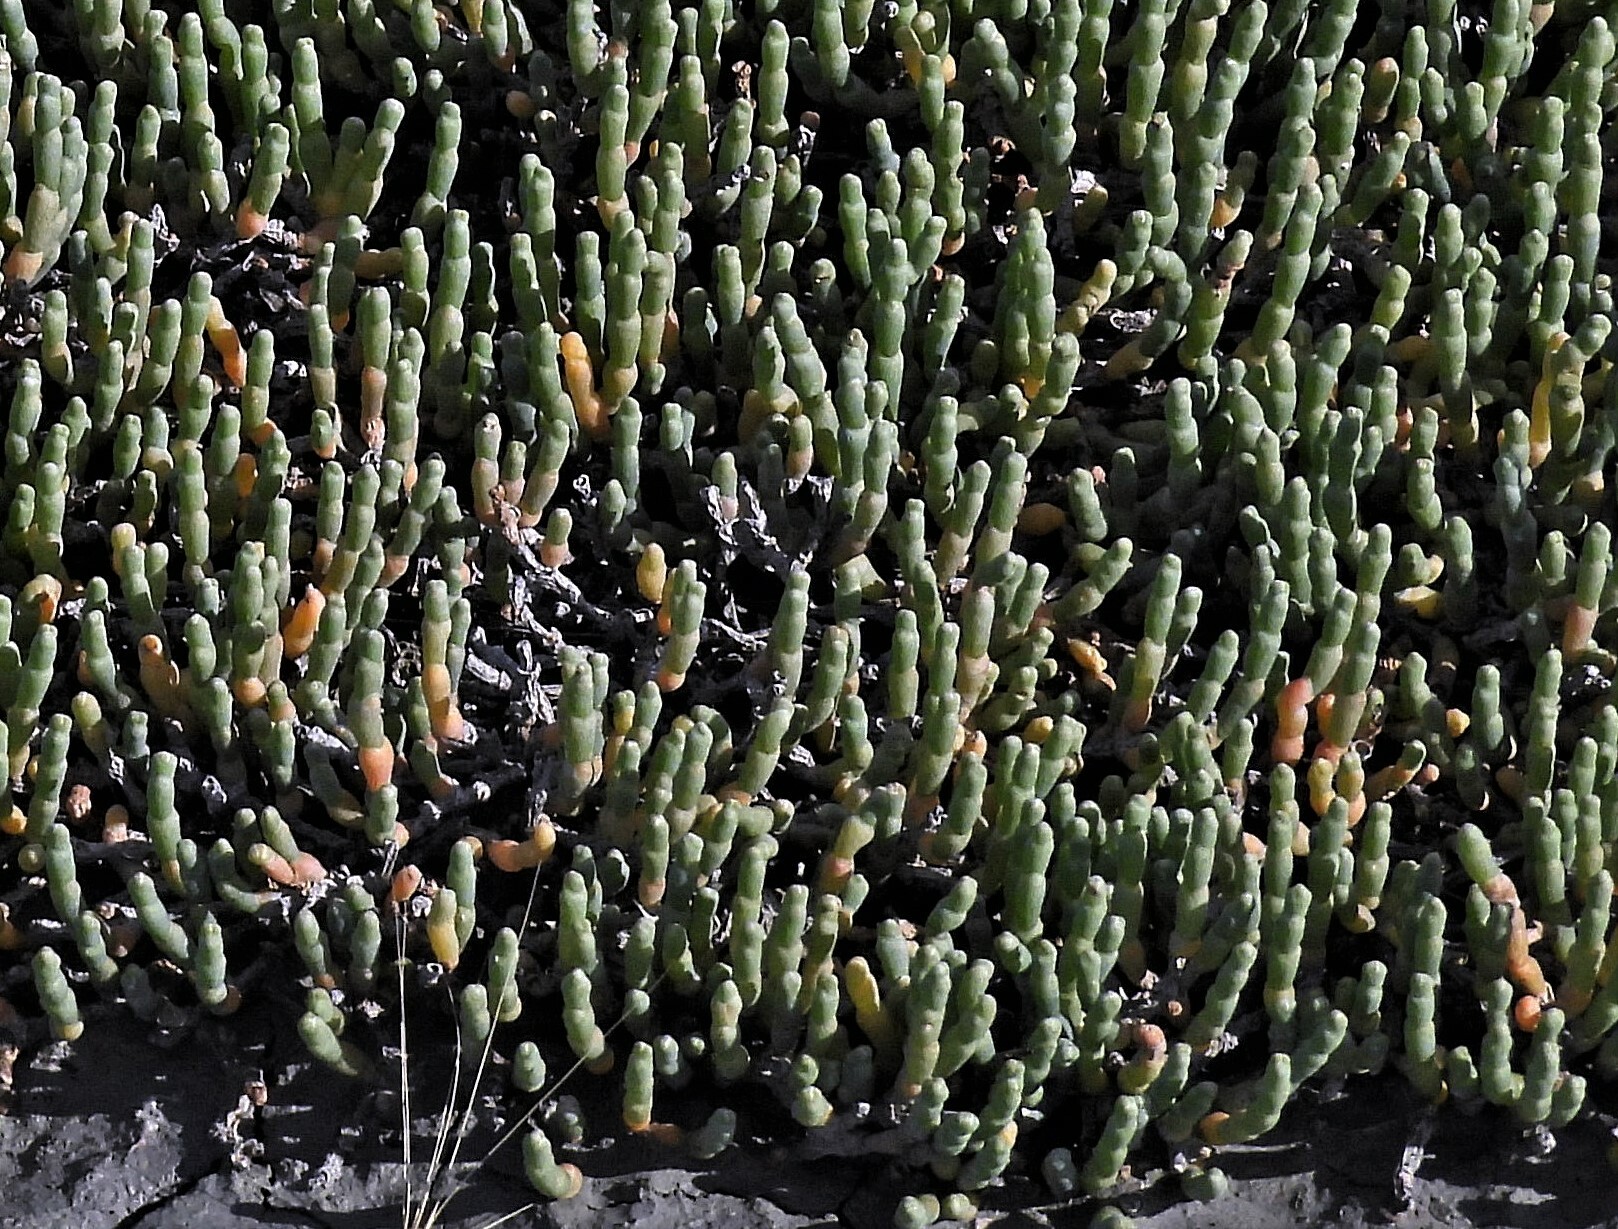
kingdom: Plantae
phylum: Tracheophyta
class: Magnoliopsida
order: Caryophyllales
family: Amaranthaceae
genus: Salicornia
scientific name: Salicornia magellanica
